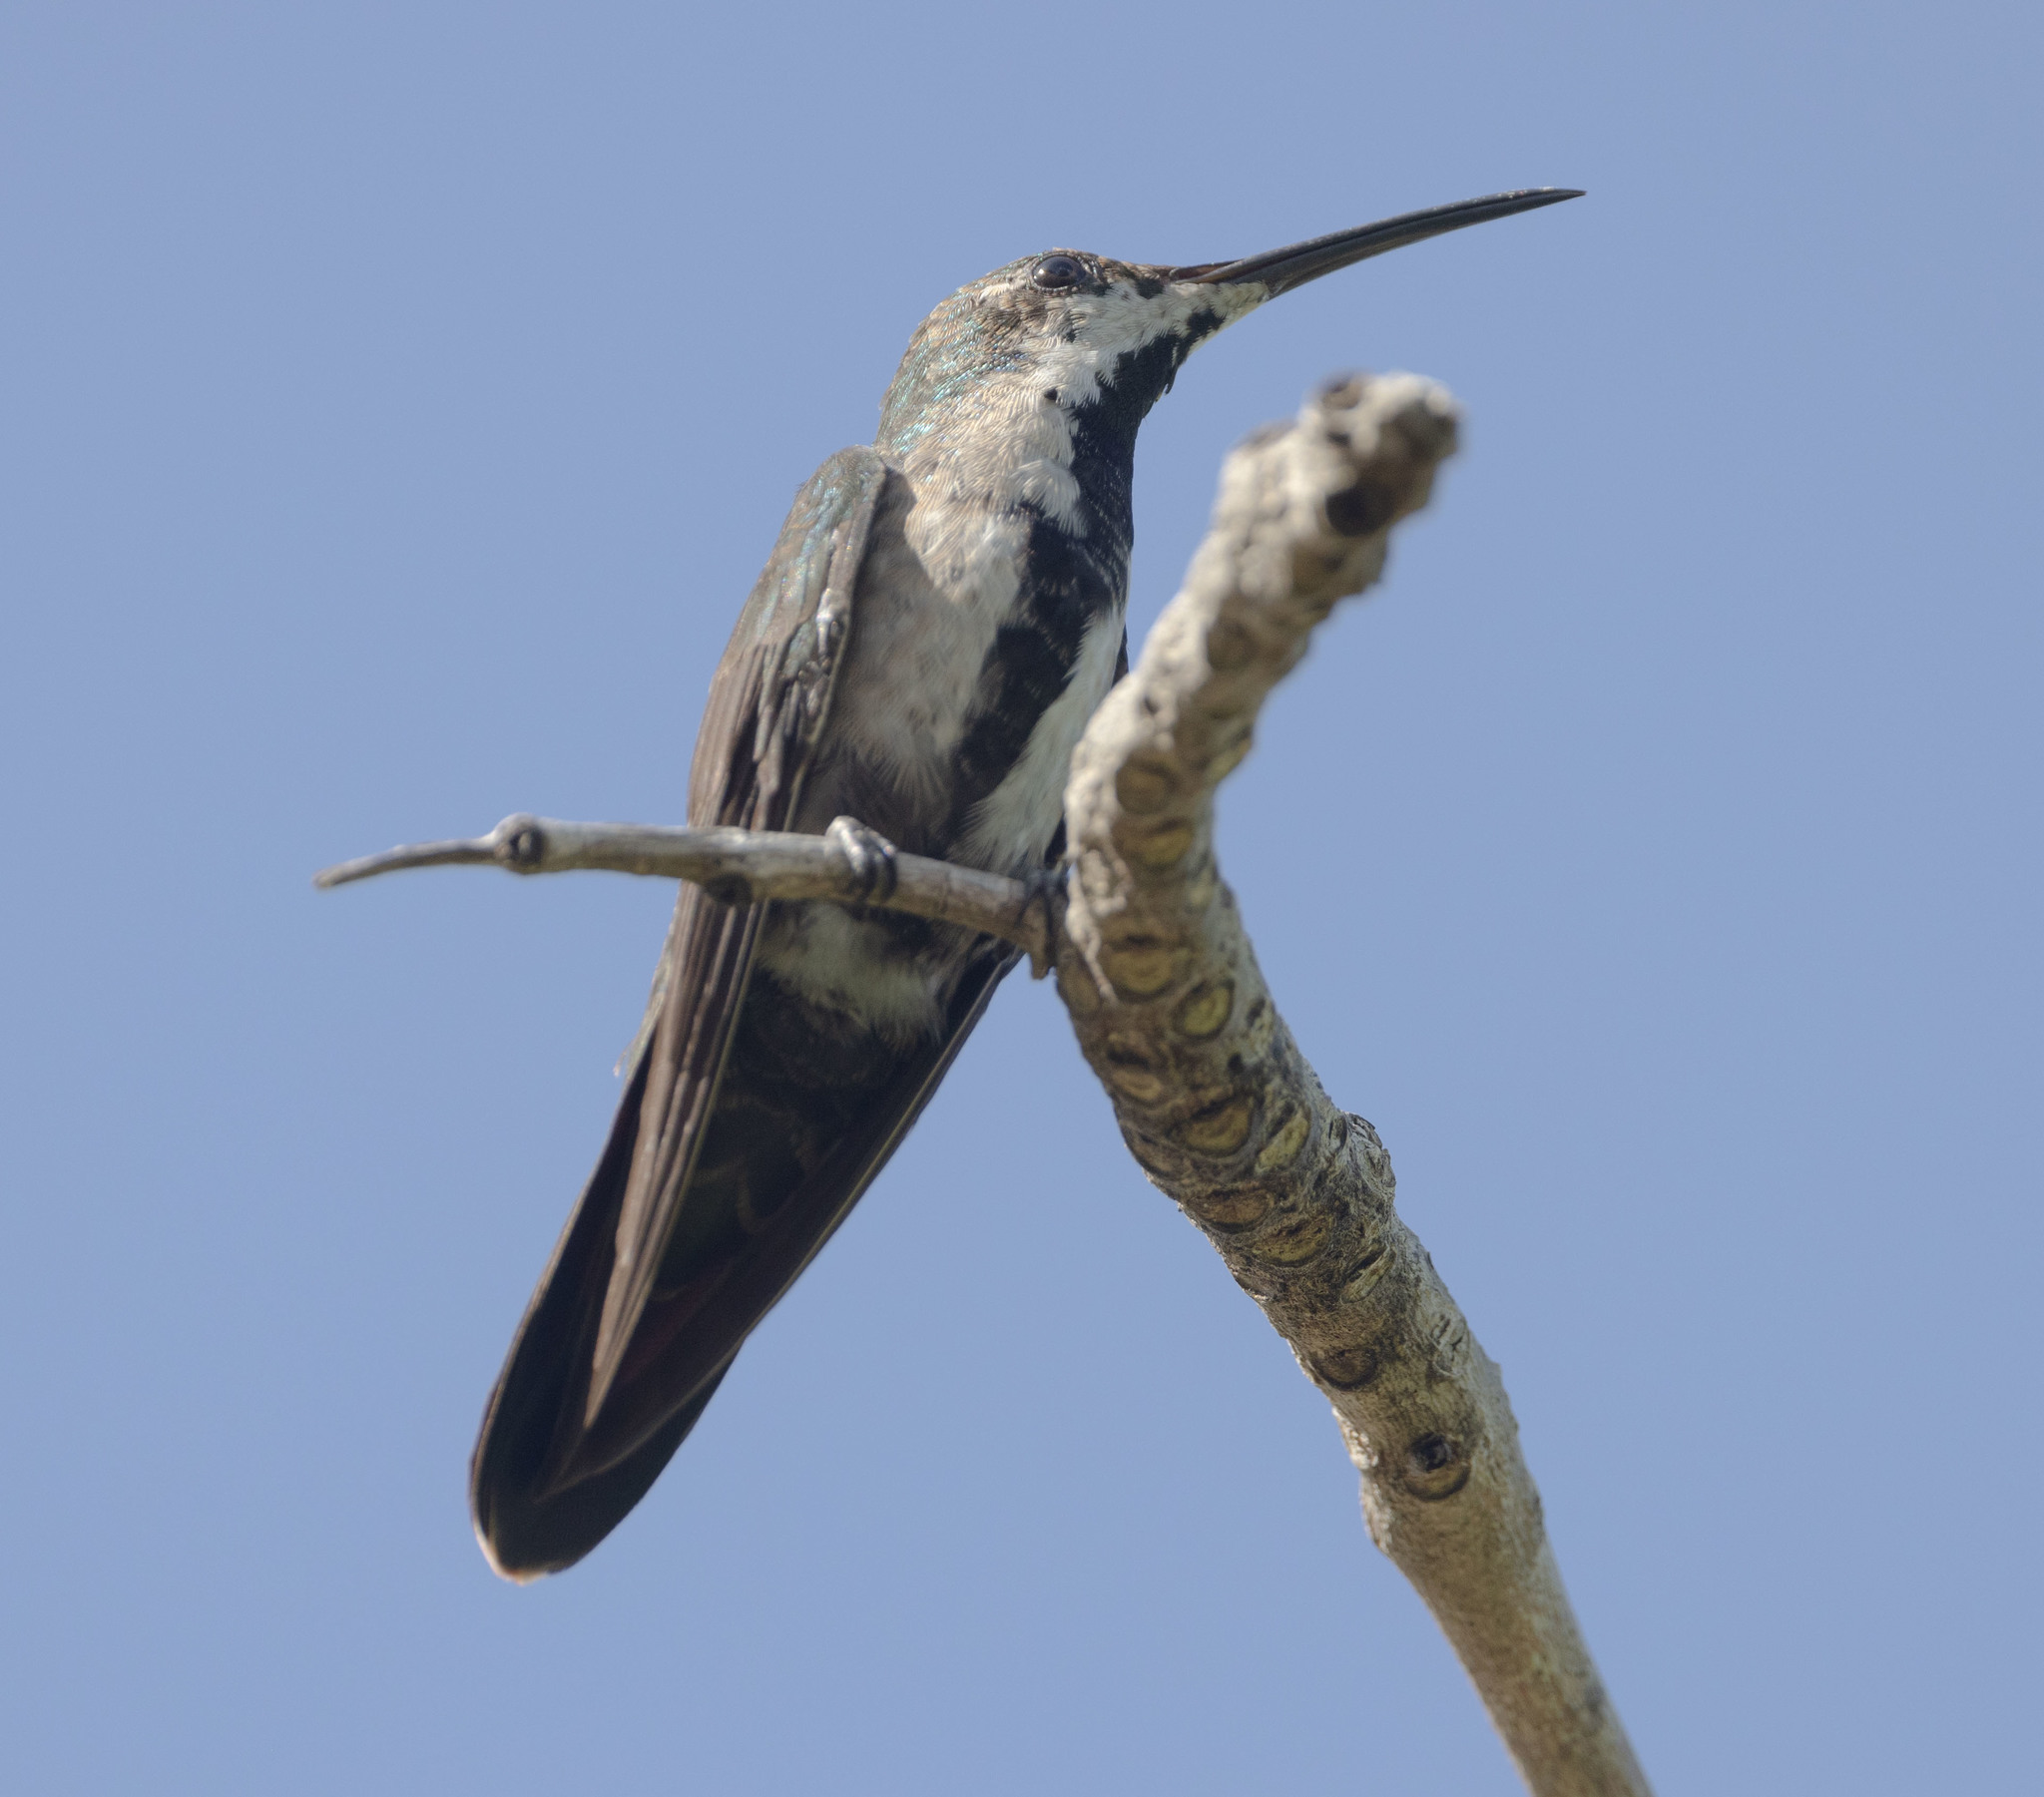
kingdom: Animalia
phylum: Chordata
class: Aves
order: Apodiformes
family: Trochilidae
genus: Anthracothorax
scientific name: Anthracothorax dominicus
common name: Antillean mango
